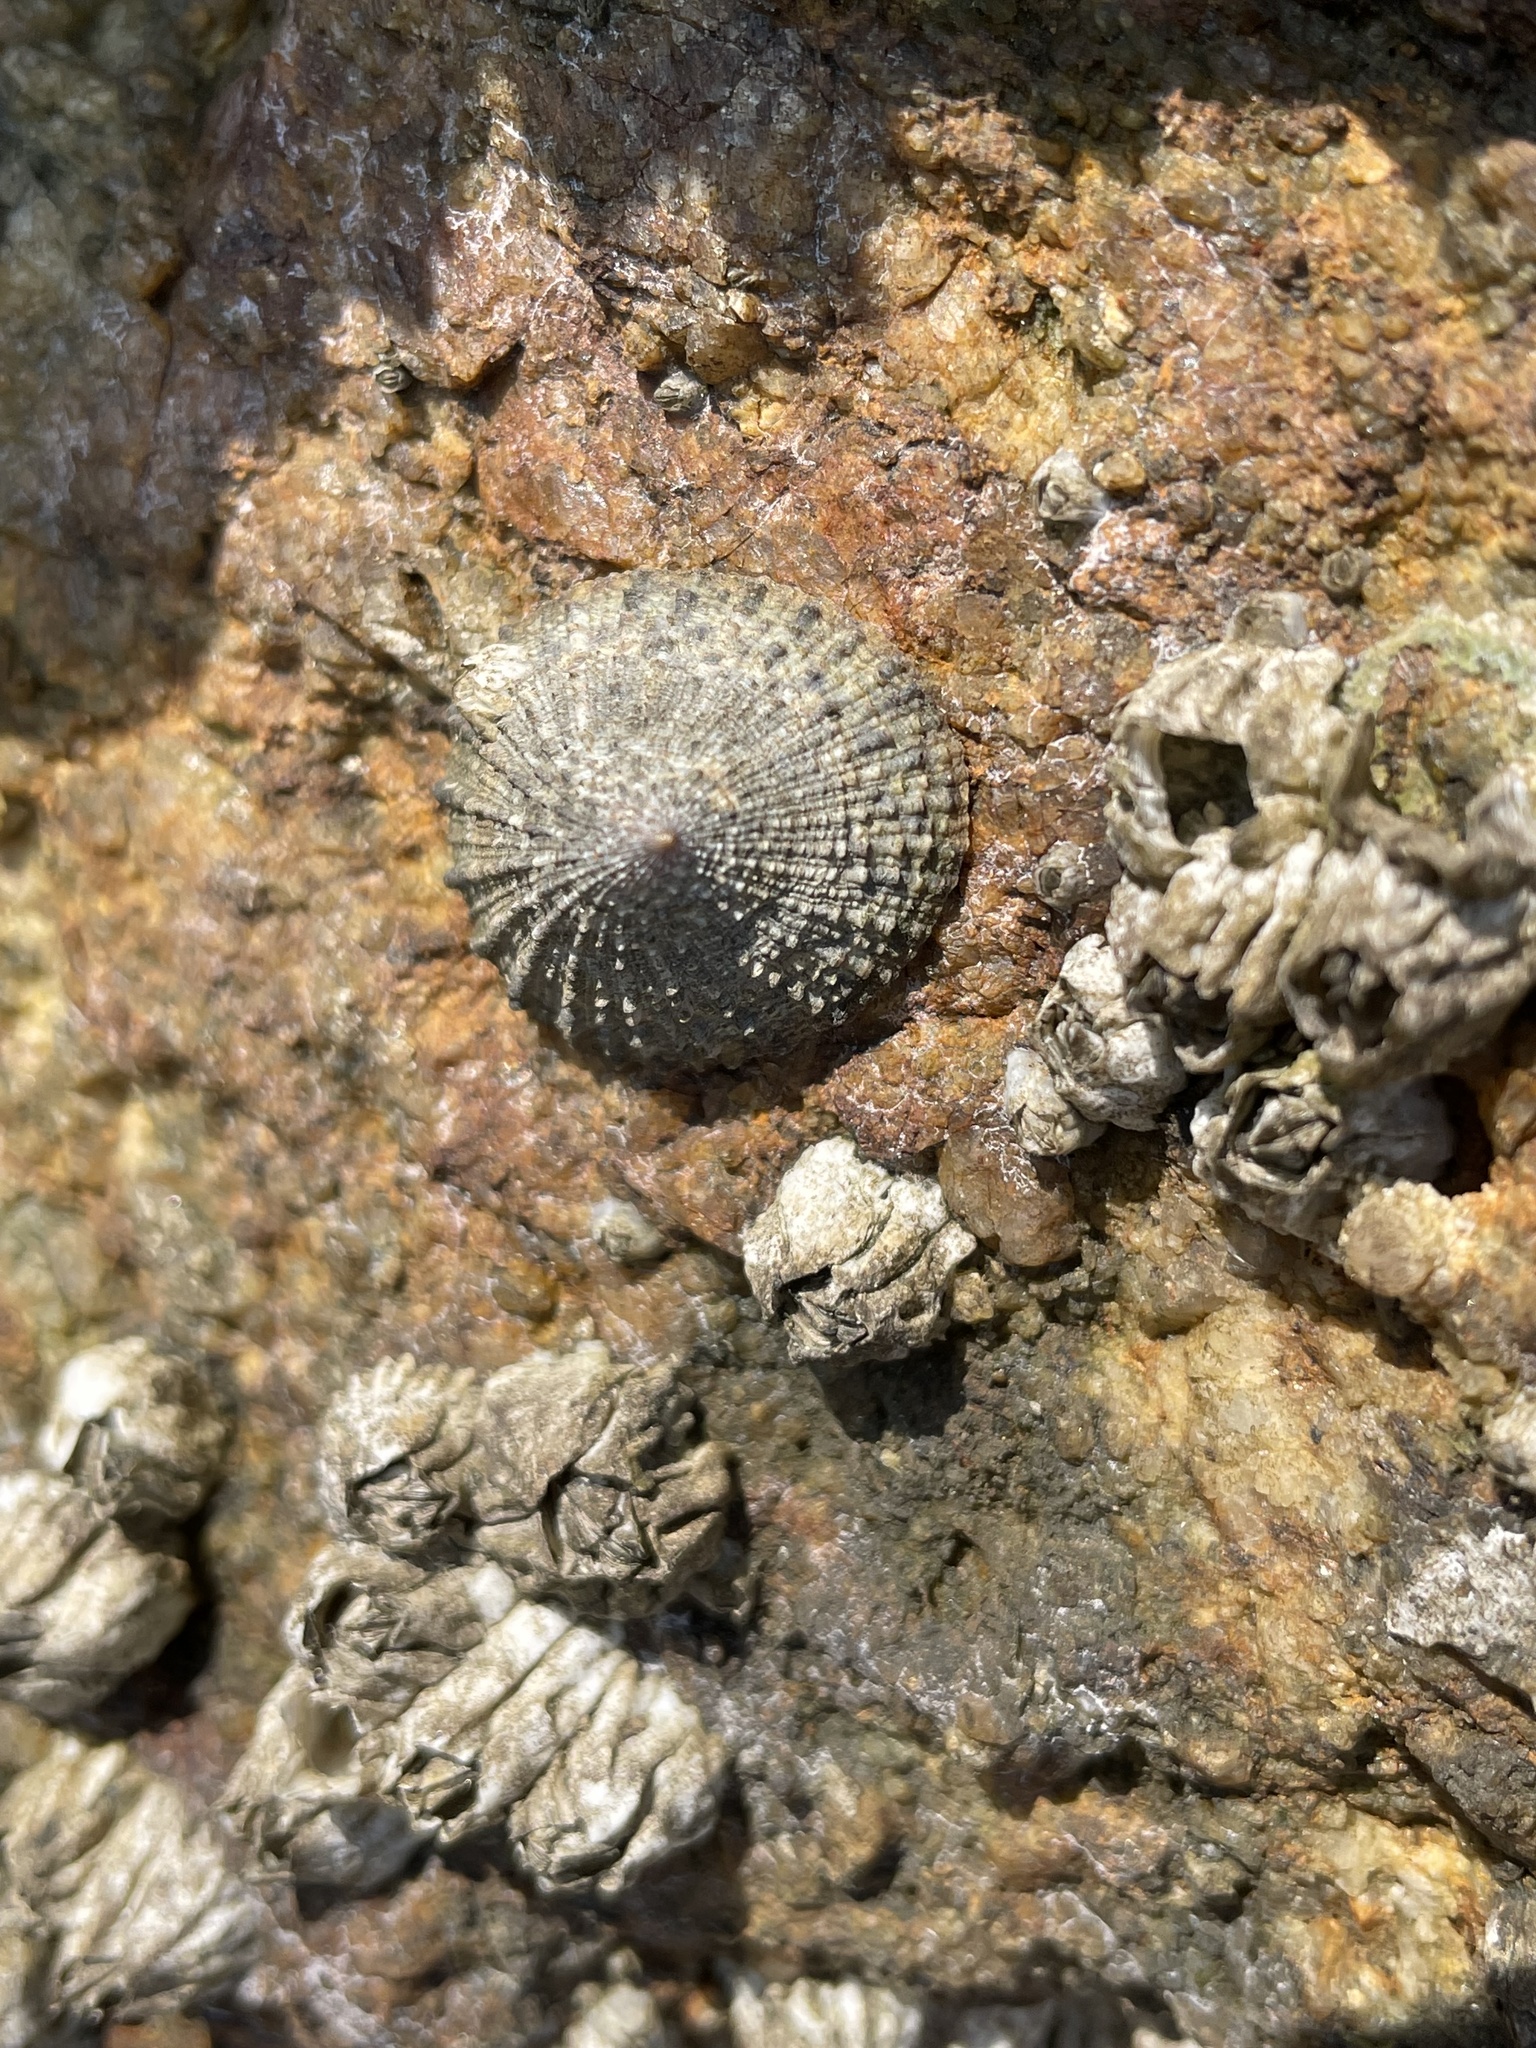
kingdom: Animalia
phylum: Mollusca
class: Gastropoda
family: Lottiidae
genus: Lottia
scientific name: Lottia limatula
